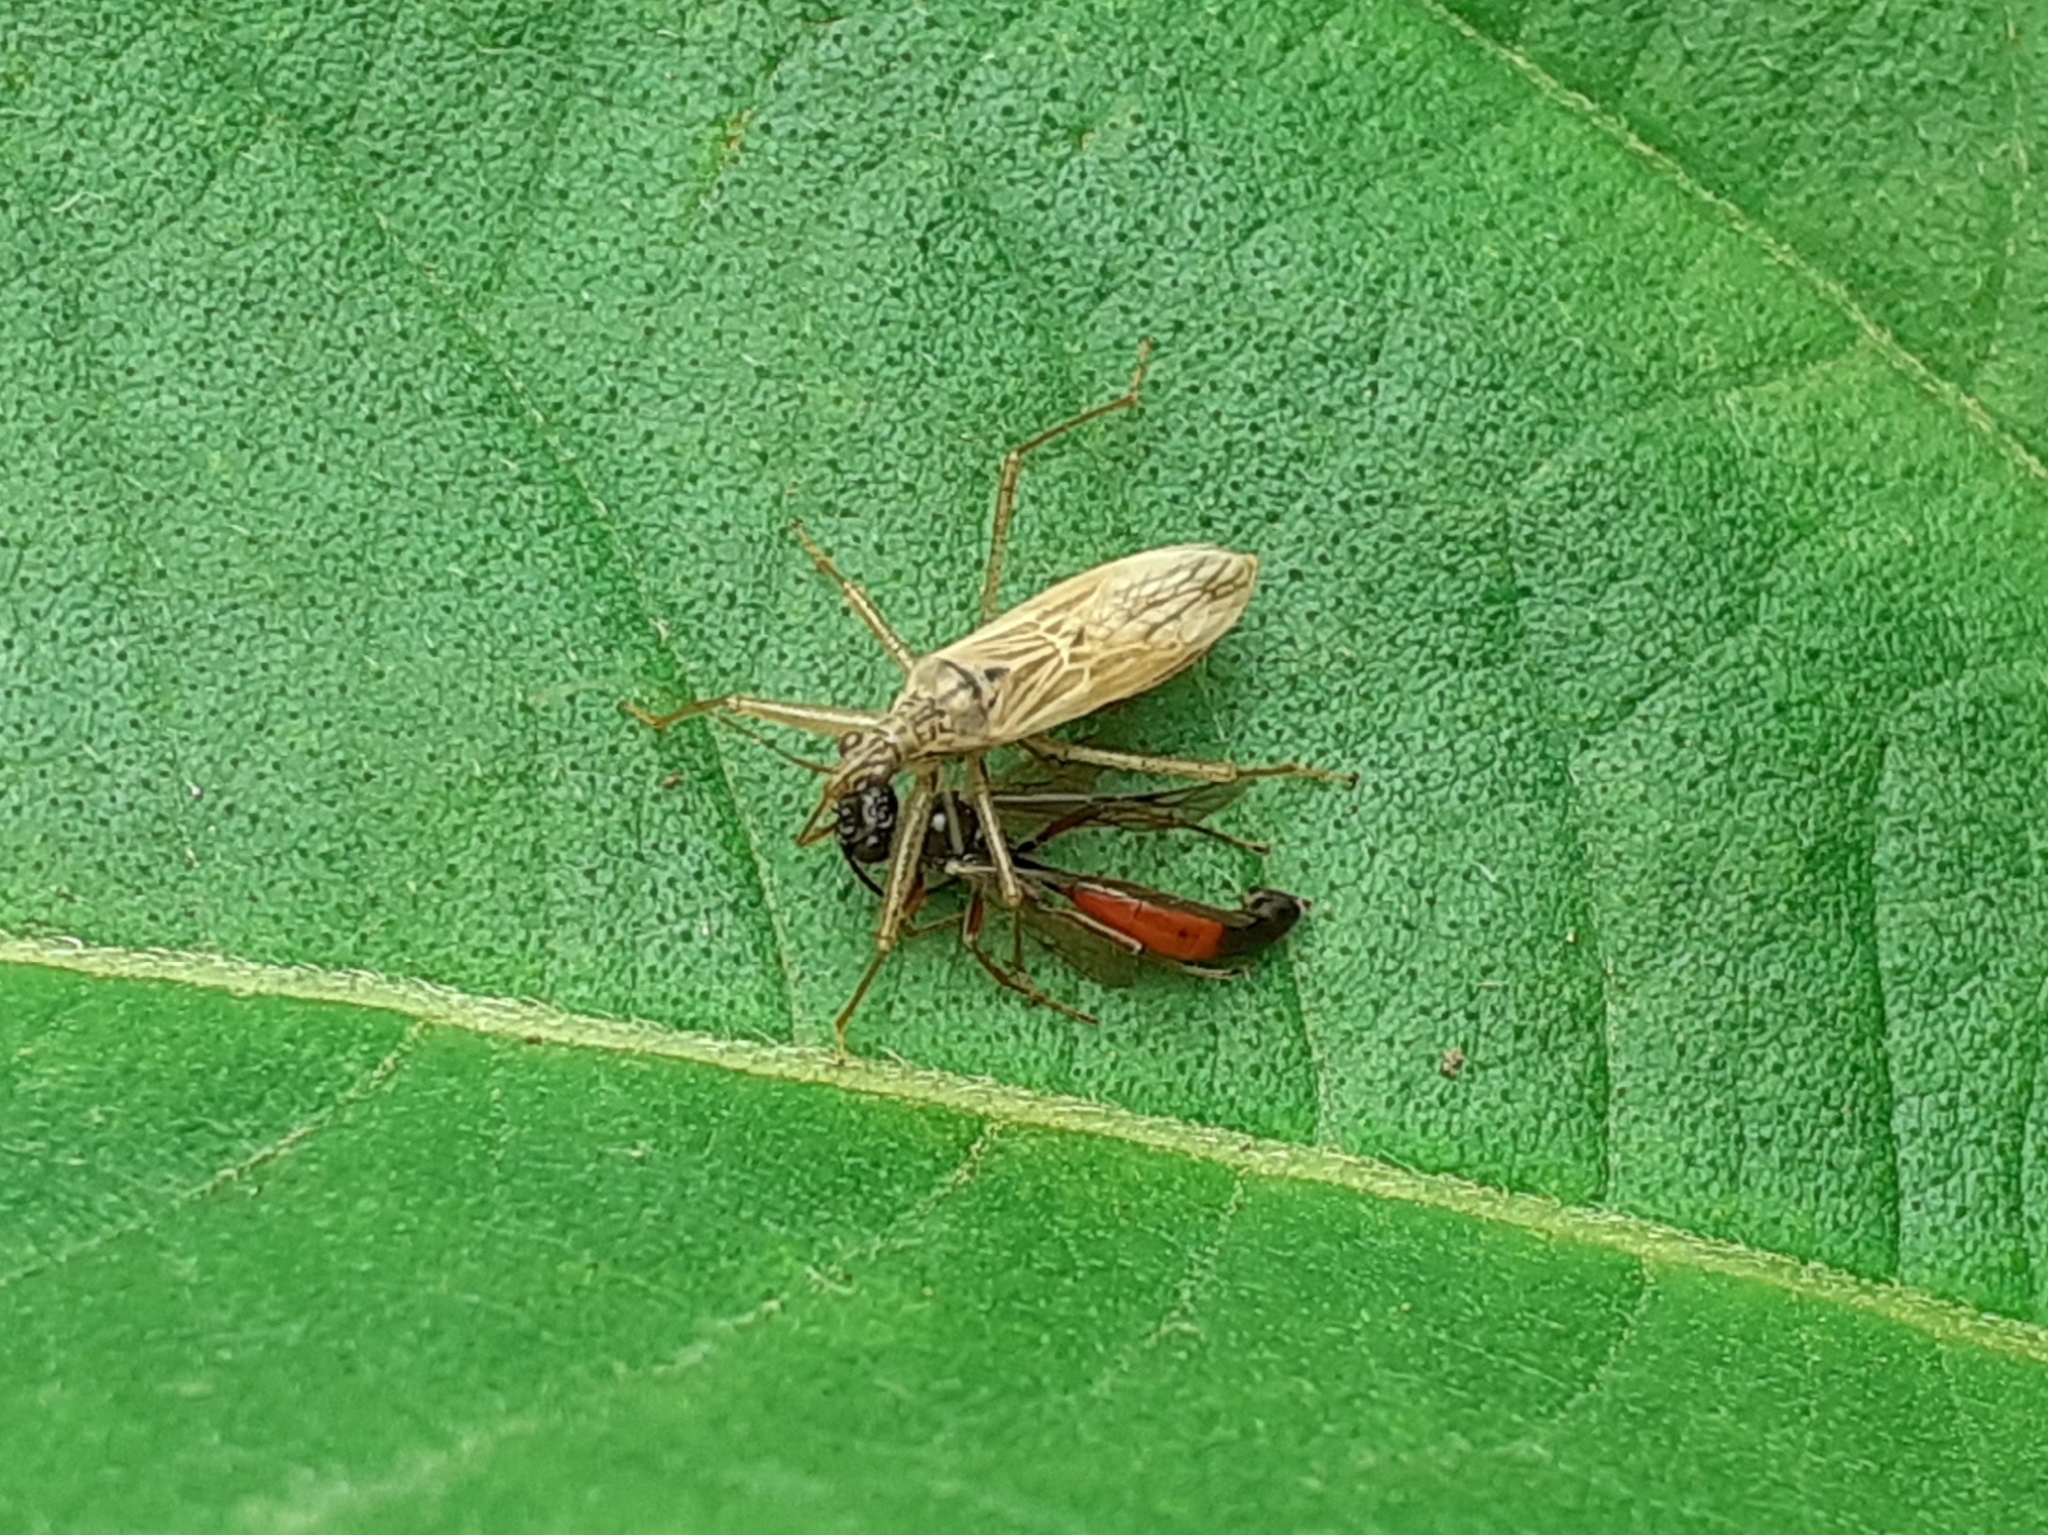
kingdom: Animalia
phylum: Arthropoda
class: Insecta
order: Hemiptera
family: Nabidae
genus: Nabis
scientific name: Nabis limbatus
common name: Marsh damselbug
